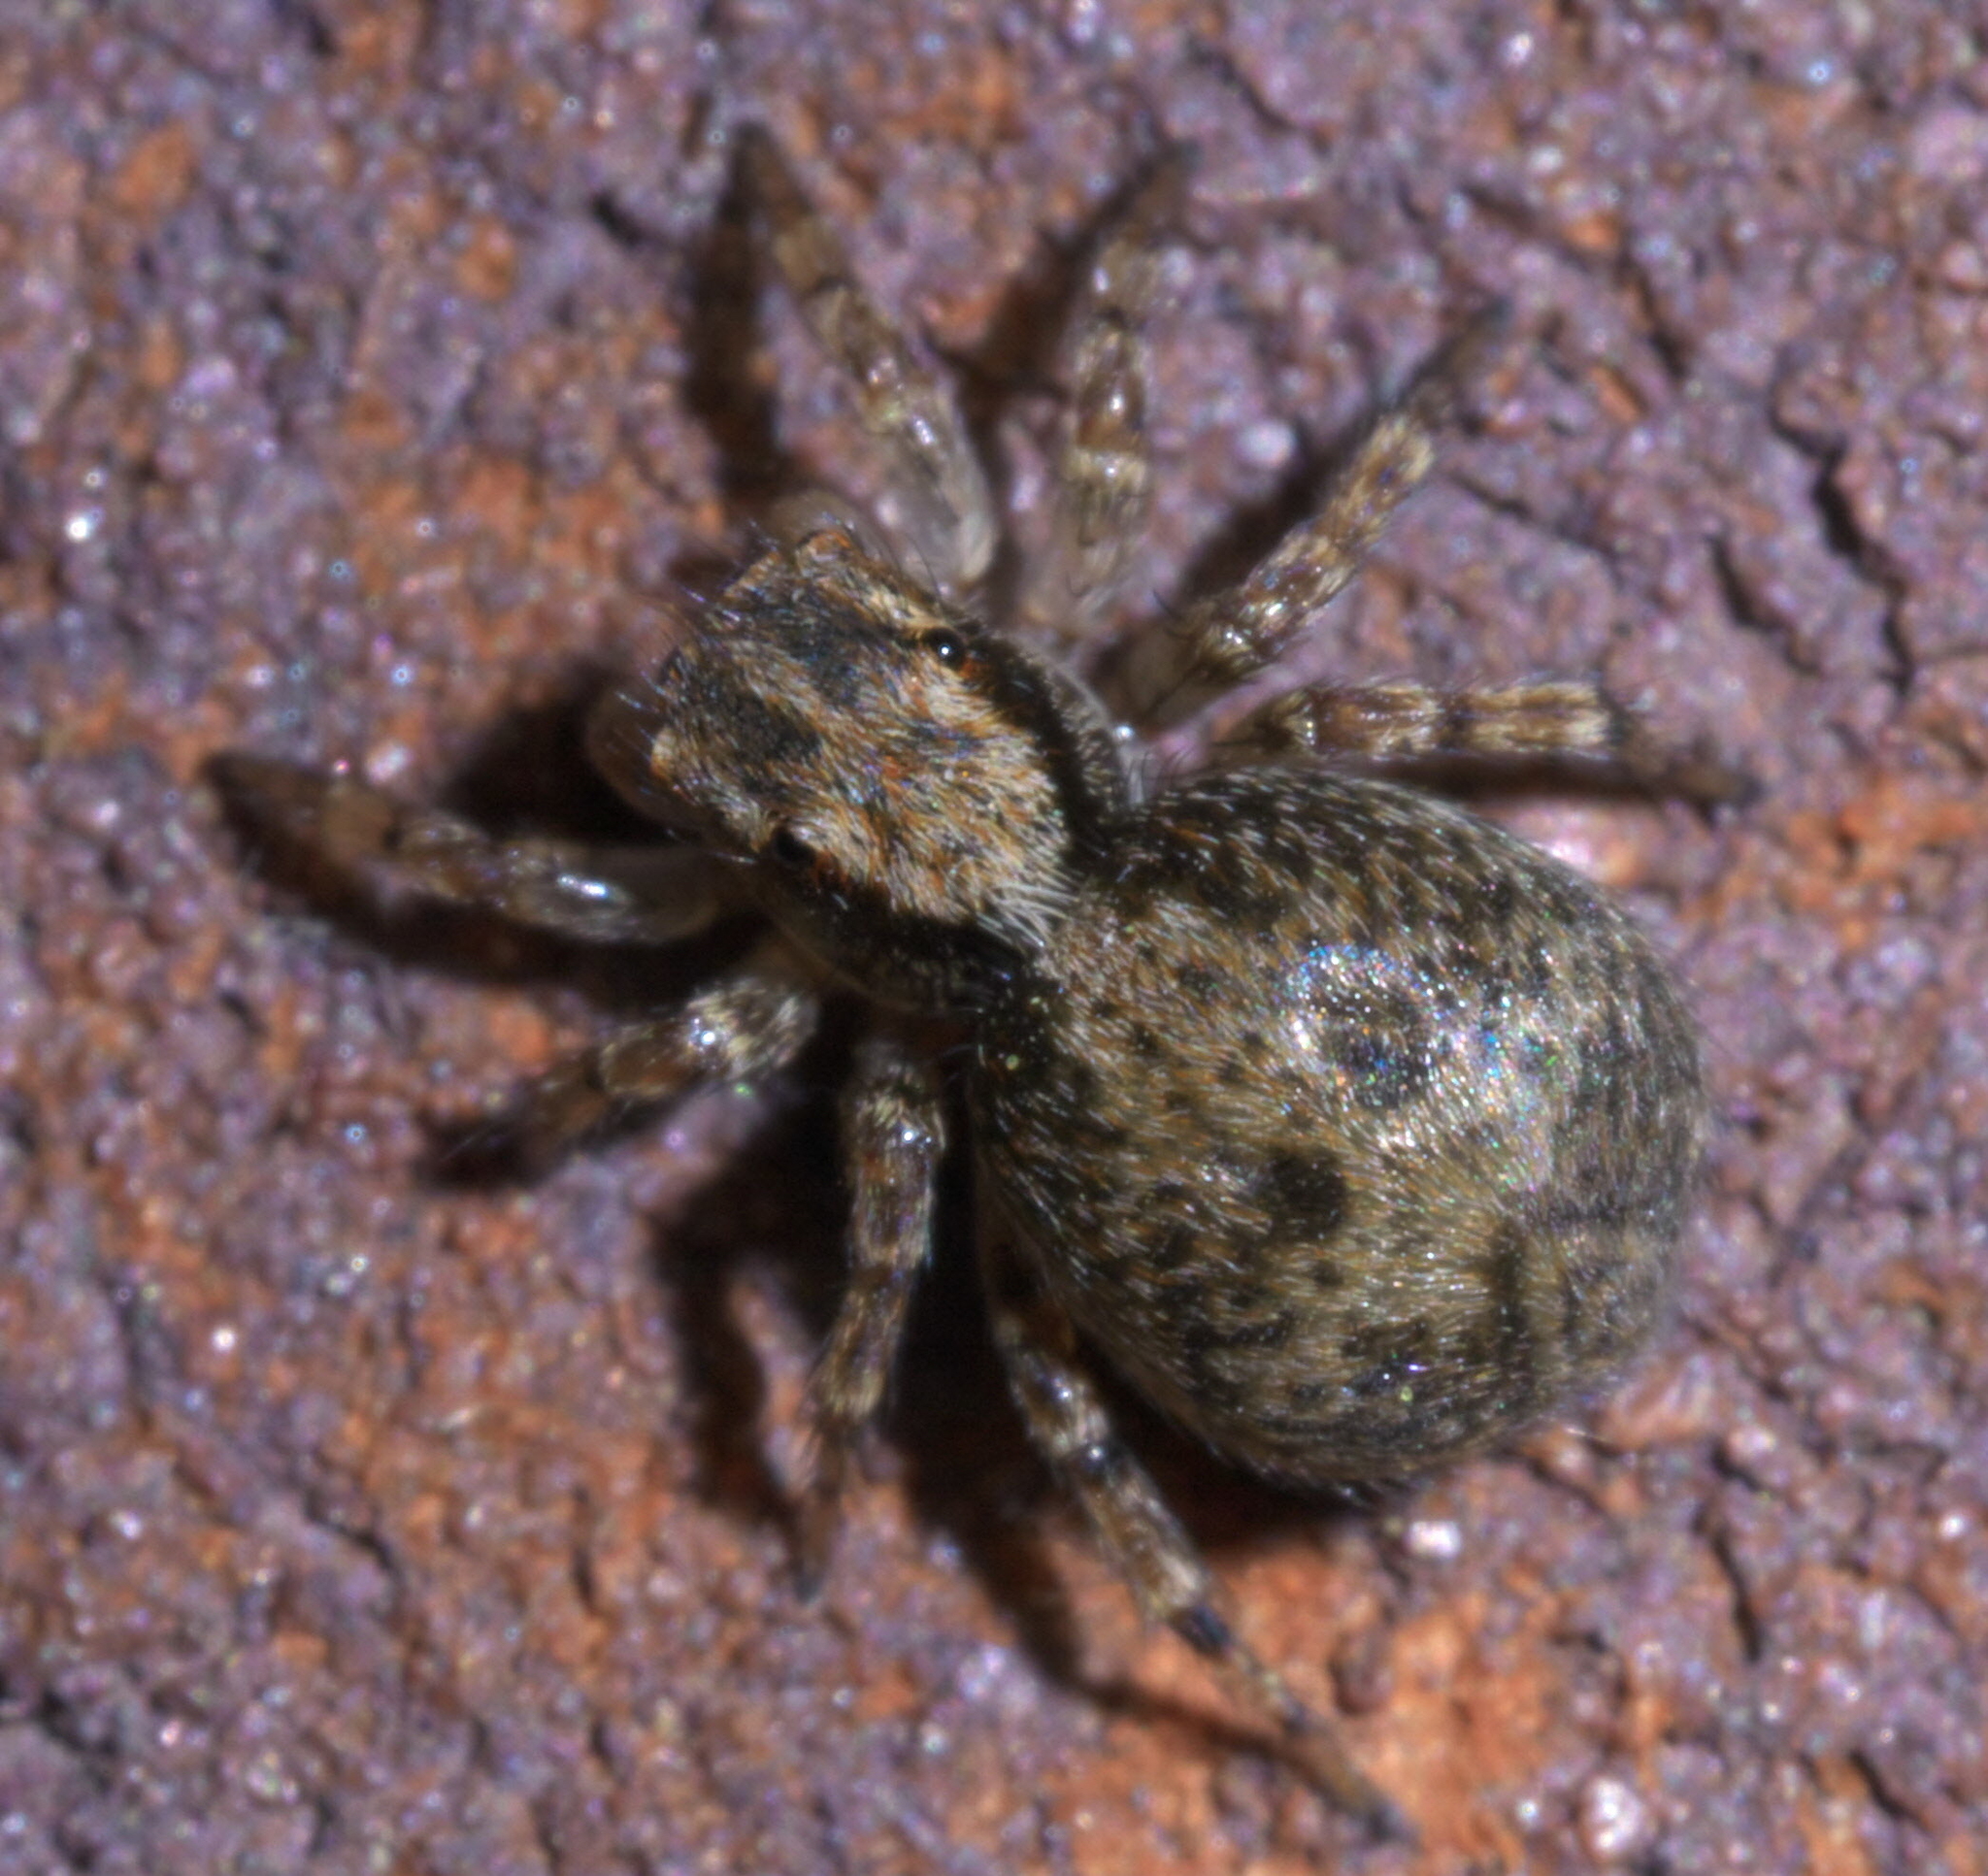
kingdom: Animalia
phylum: Arthropoda
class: Arachnida
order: Araneae
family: Salticidae
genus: Naphrys
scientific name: Naphrys pulex
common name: Flea jumping spider
